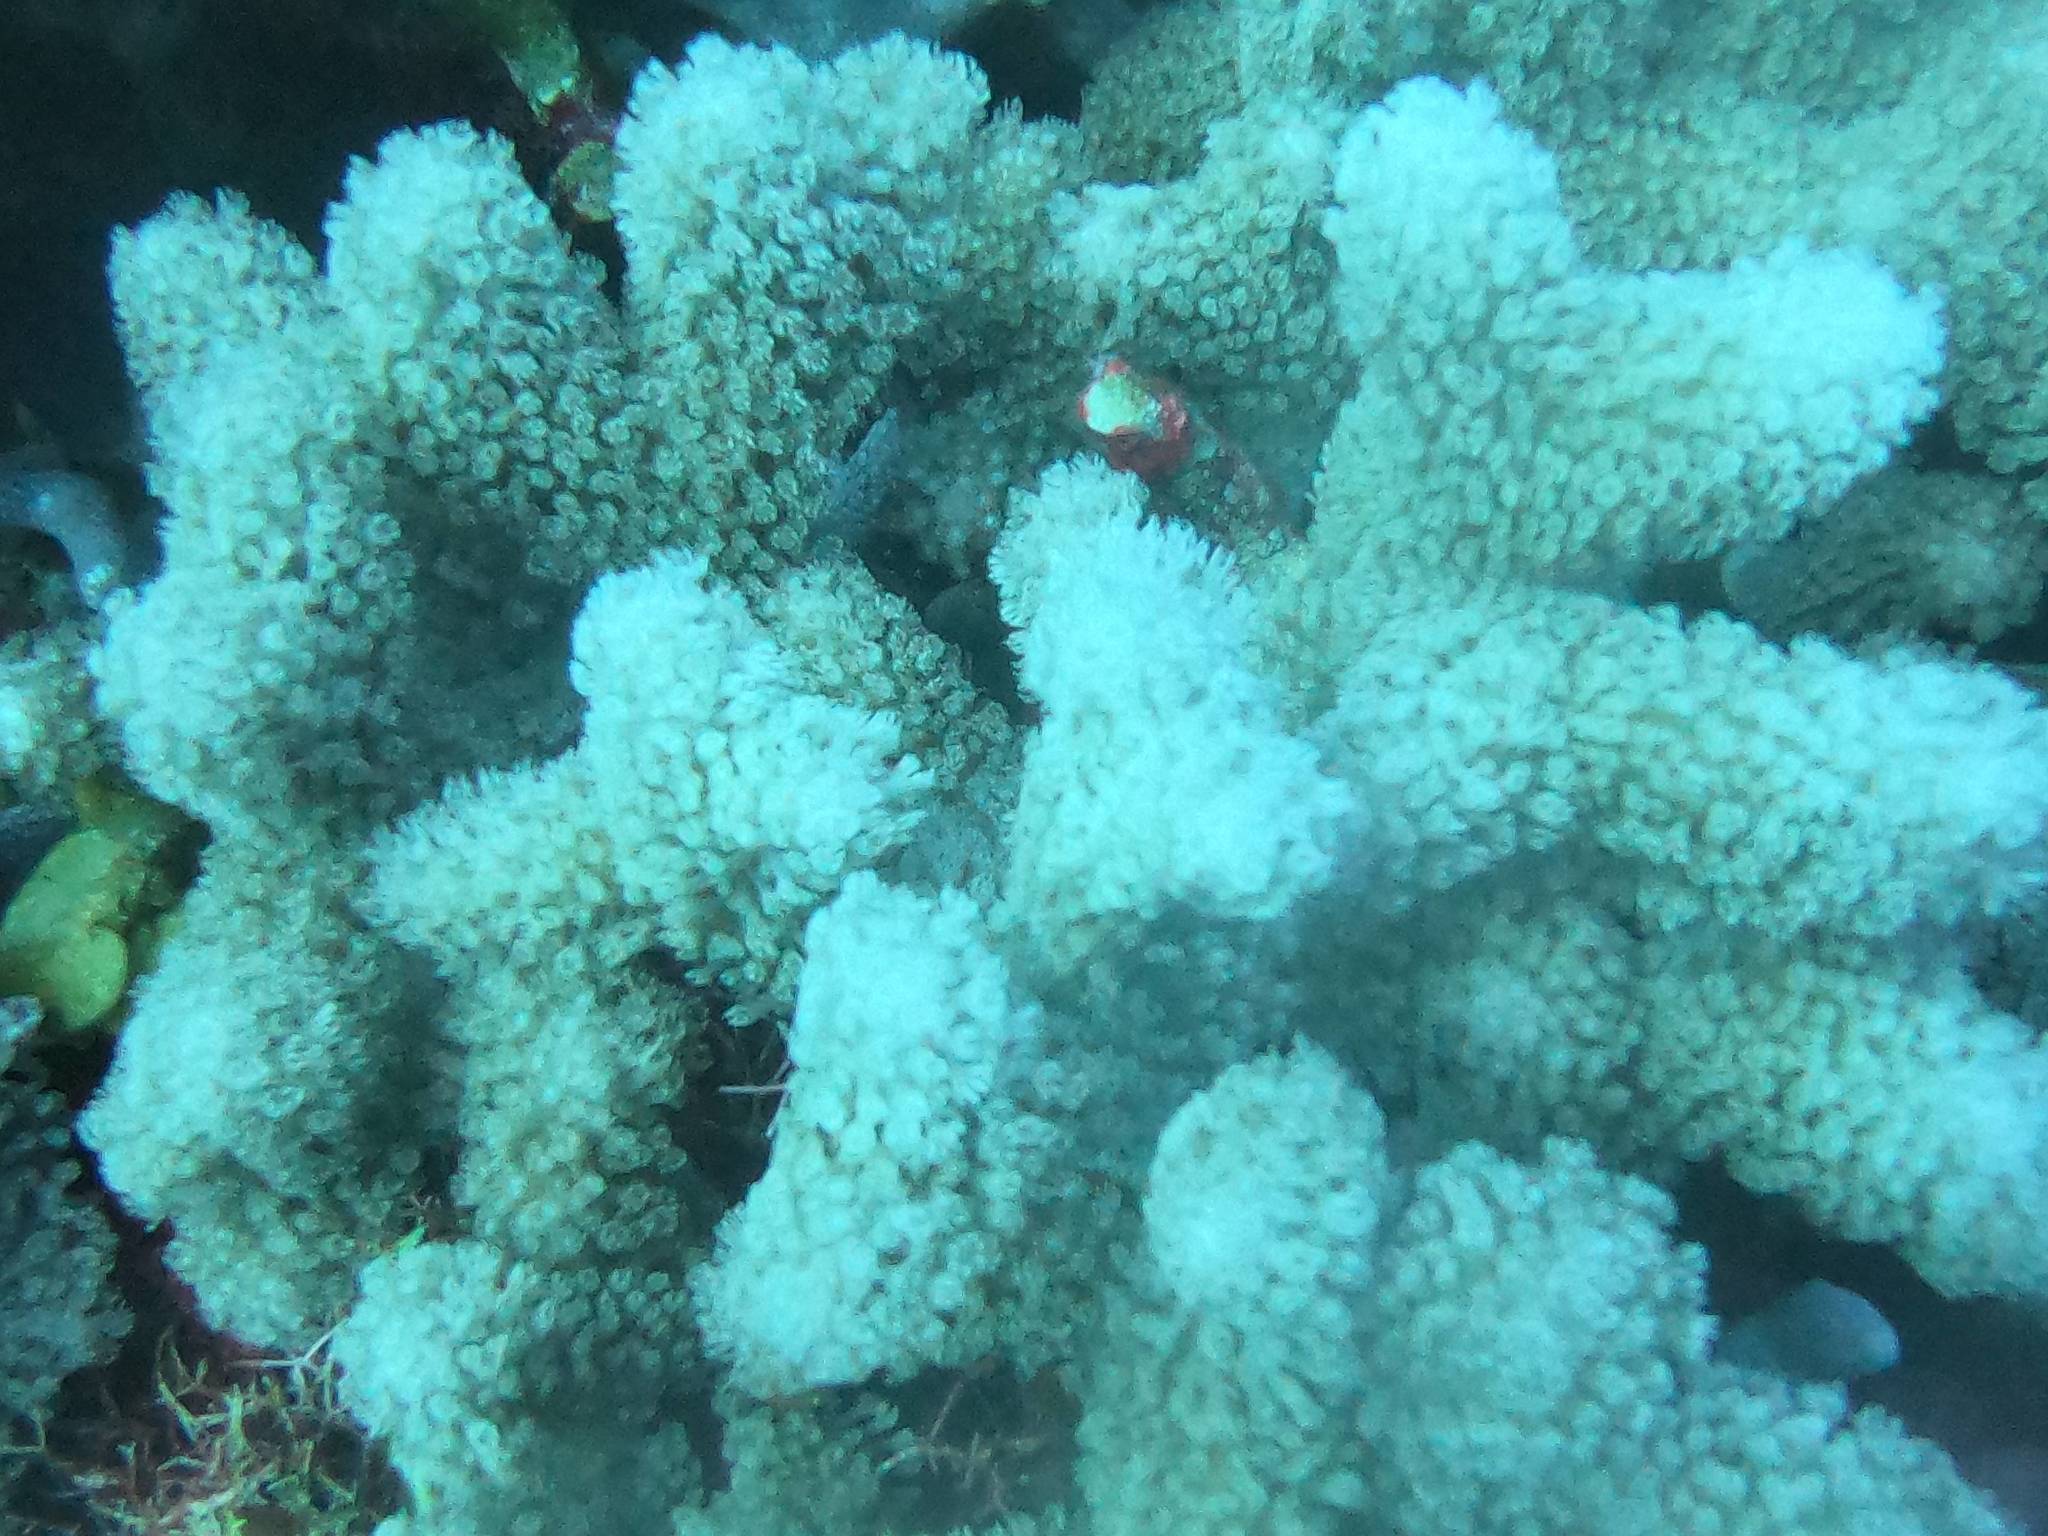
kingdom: Animalia
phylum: Cnidaria
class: Anthozoa
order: Scleractinia
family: Poritidae
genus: Porites
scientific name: Porites porites
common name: Finger coral
